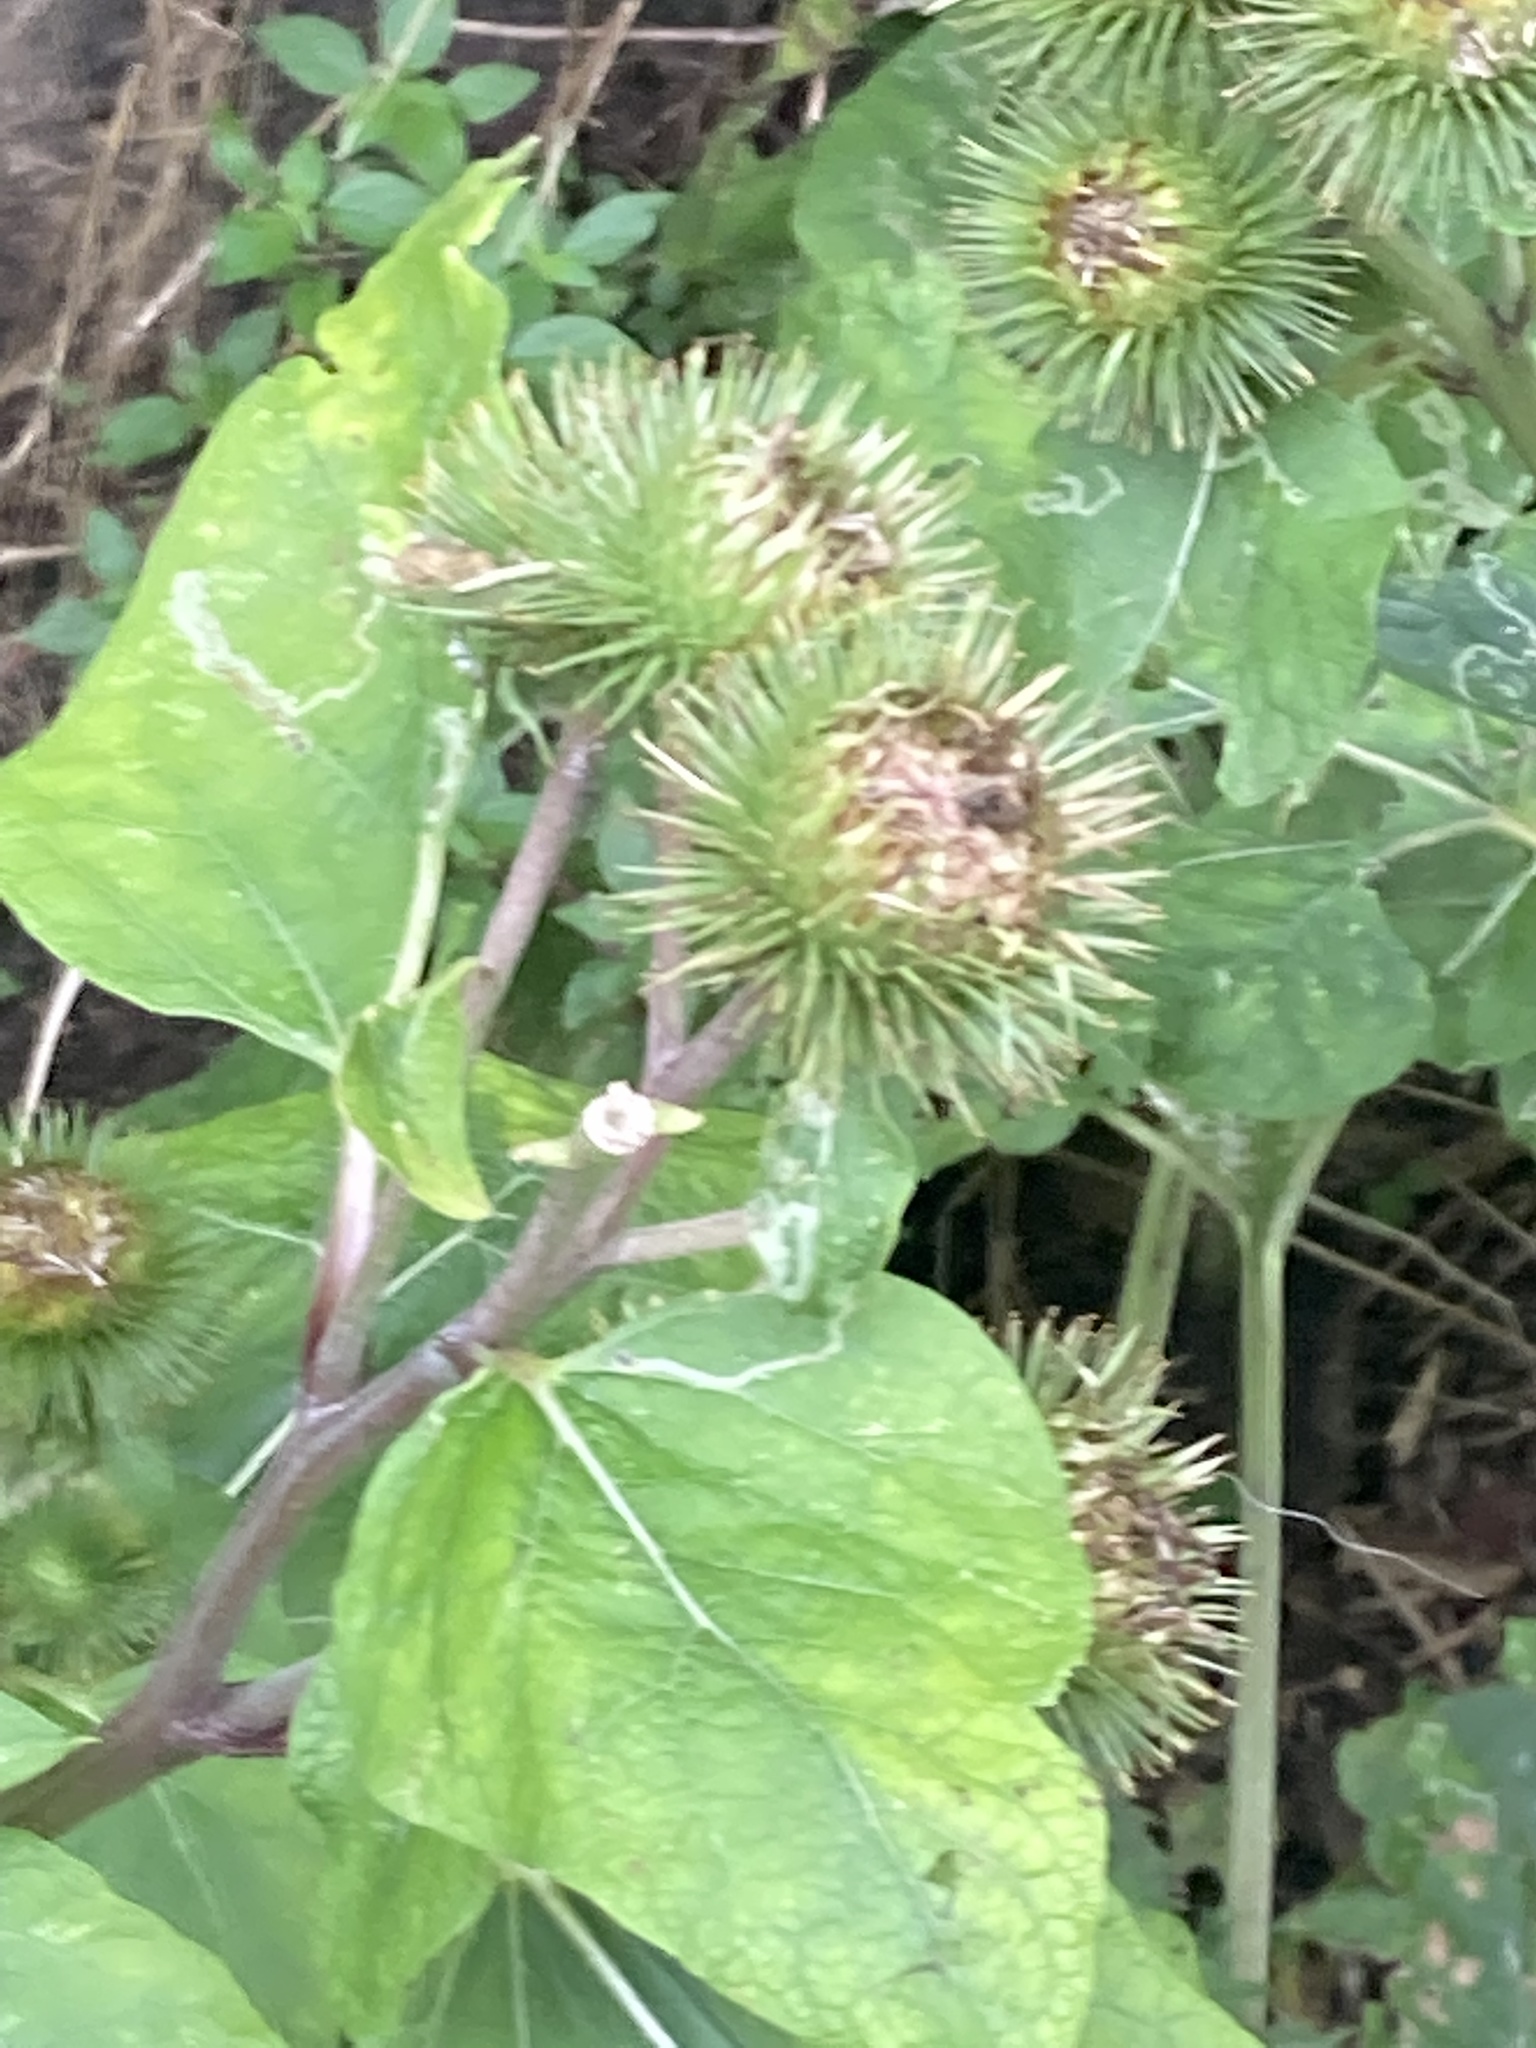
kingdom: Plantae
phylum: Tracheophyta
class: Magnoliopsida
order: Asterales
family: Asteraceae
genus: Arctium
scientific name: Arctium lappa
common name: Greater burdock
